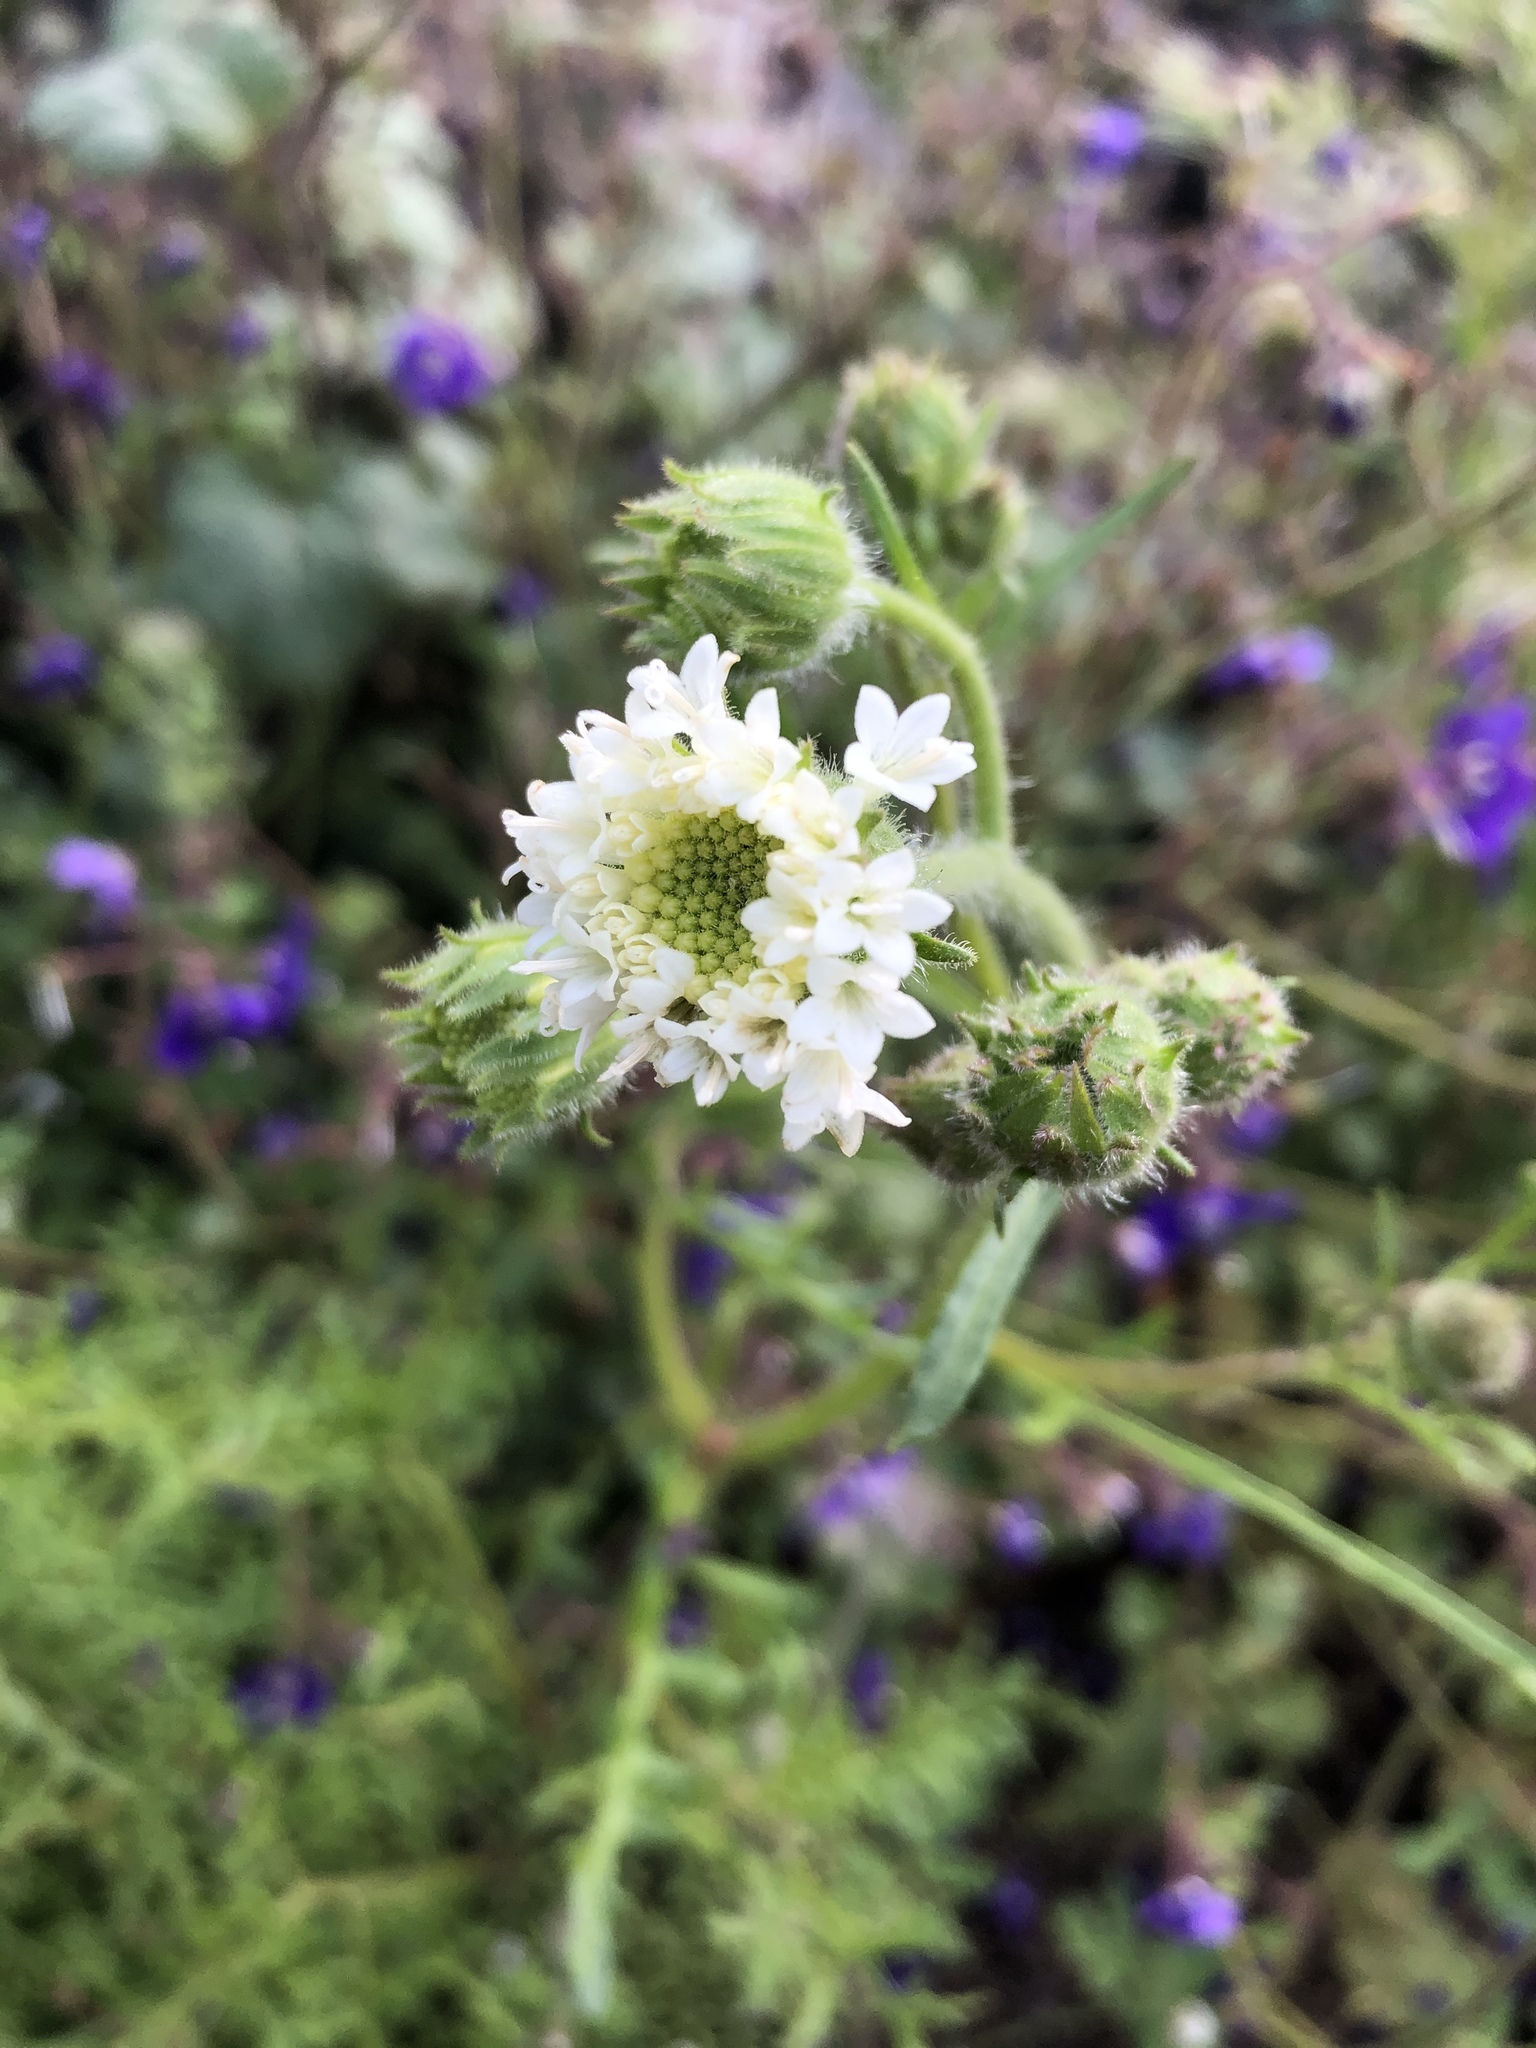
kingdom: Plantae
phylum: Tracheophyta
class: Magnoliopsida
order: Asterales
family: Asteraceae
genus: Chaenactis
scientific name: Chaenactis artemisiifolia
